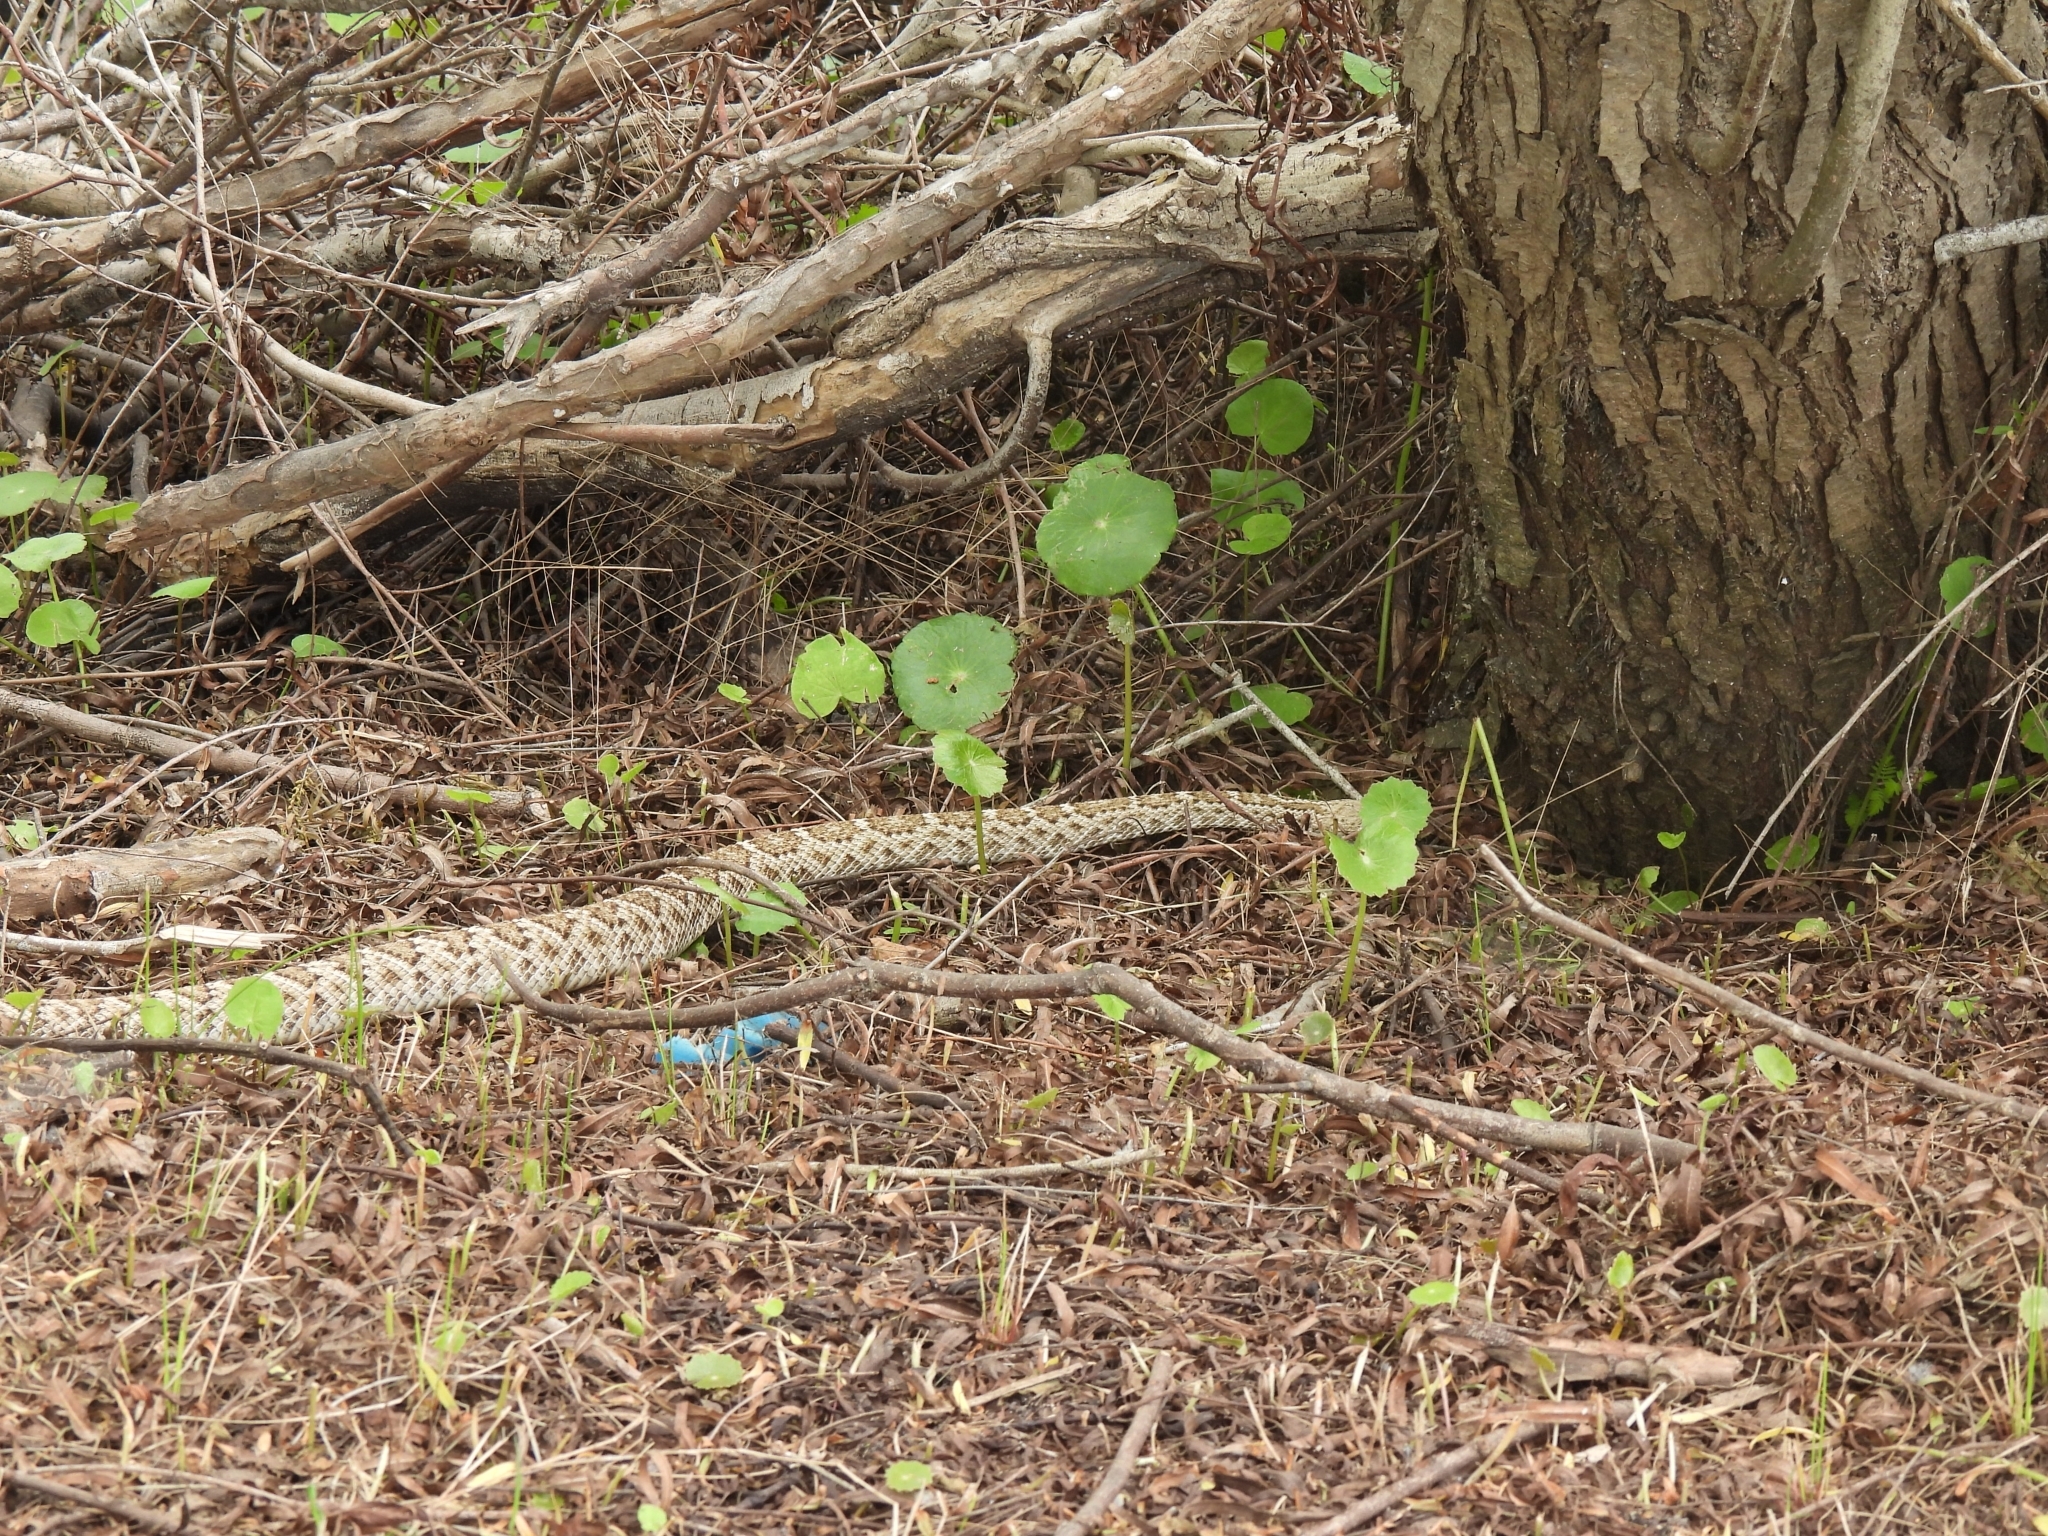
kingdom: Animalia
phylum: Chordata
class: Squamata
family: Viperidae
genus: Crotalus
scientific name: Crotalus atrox
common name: Western diamond-backed rattlesnake
